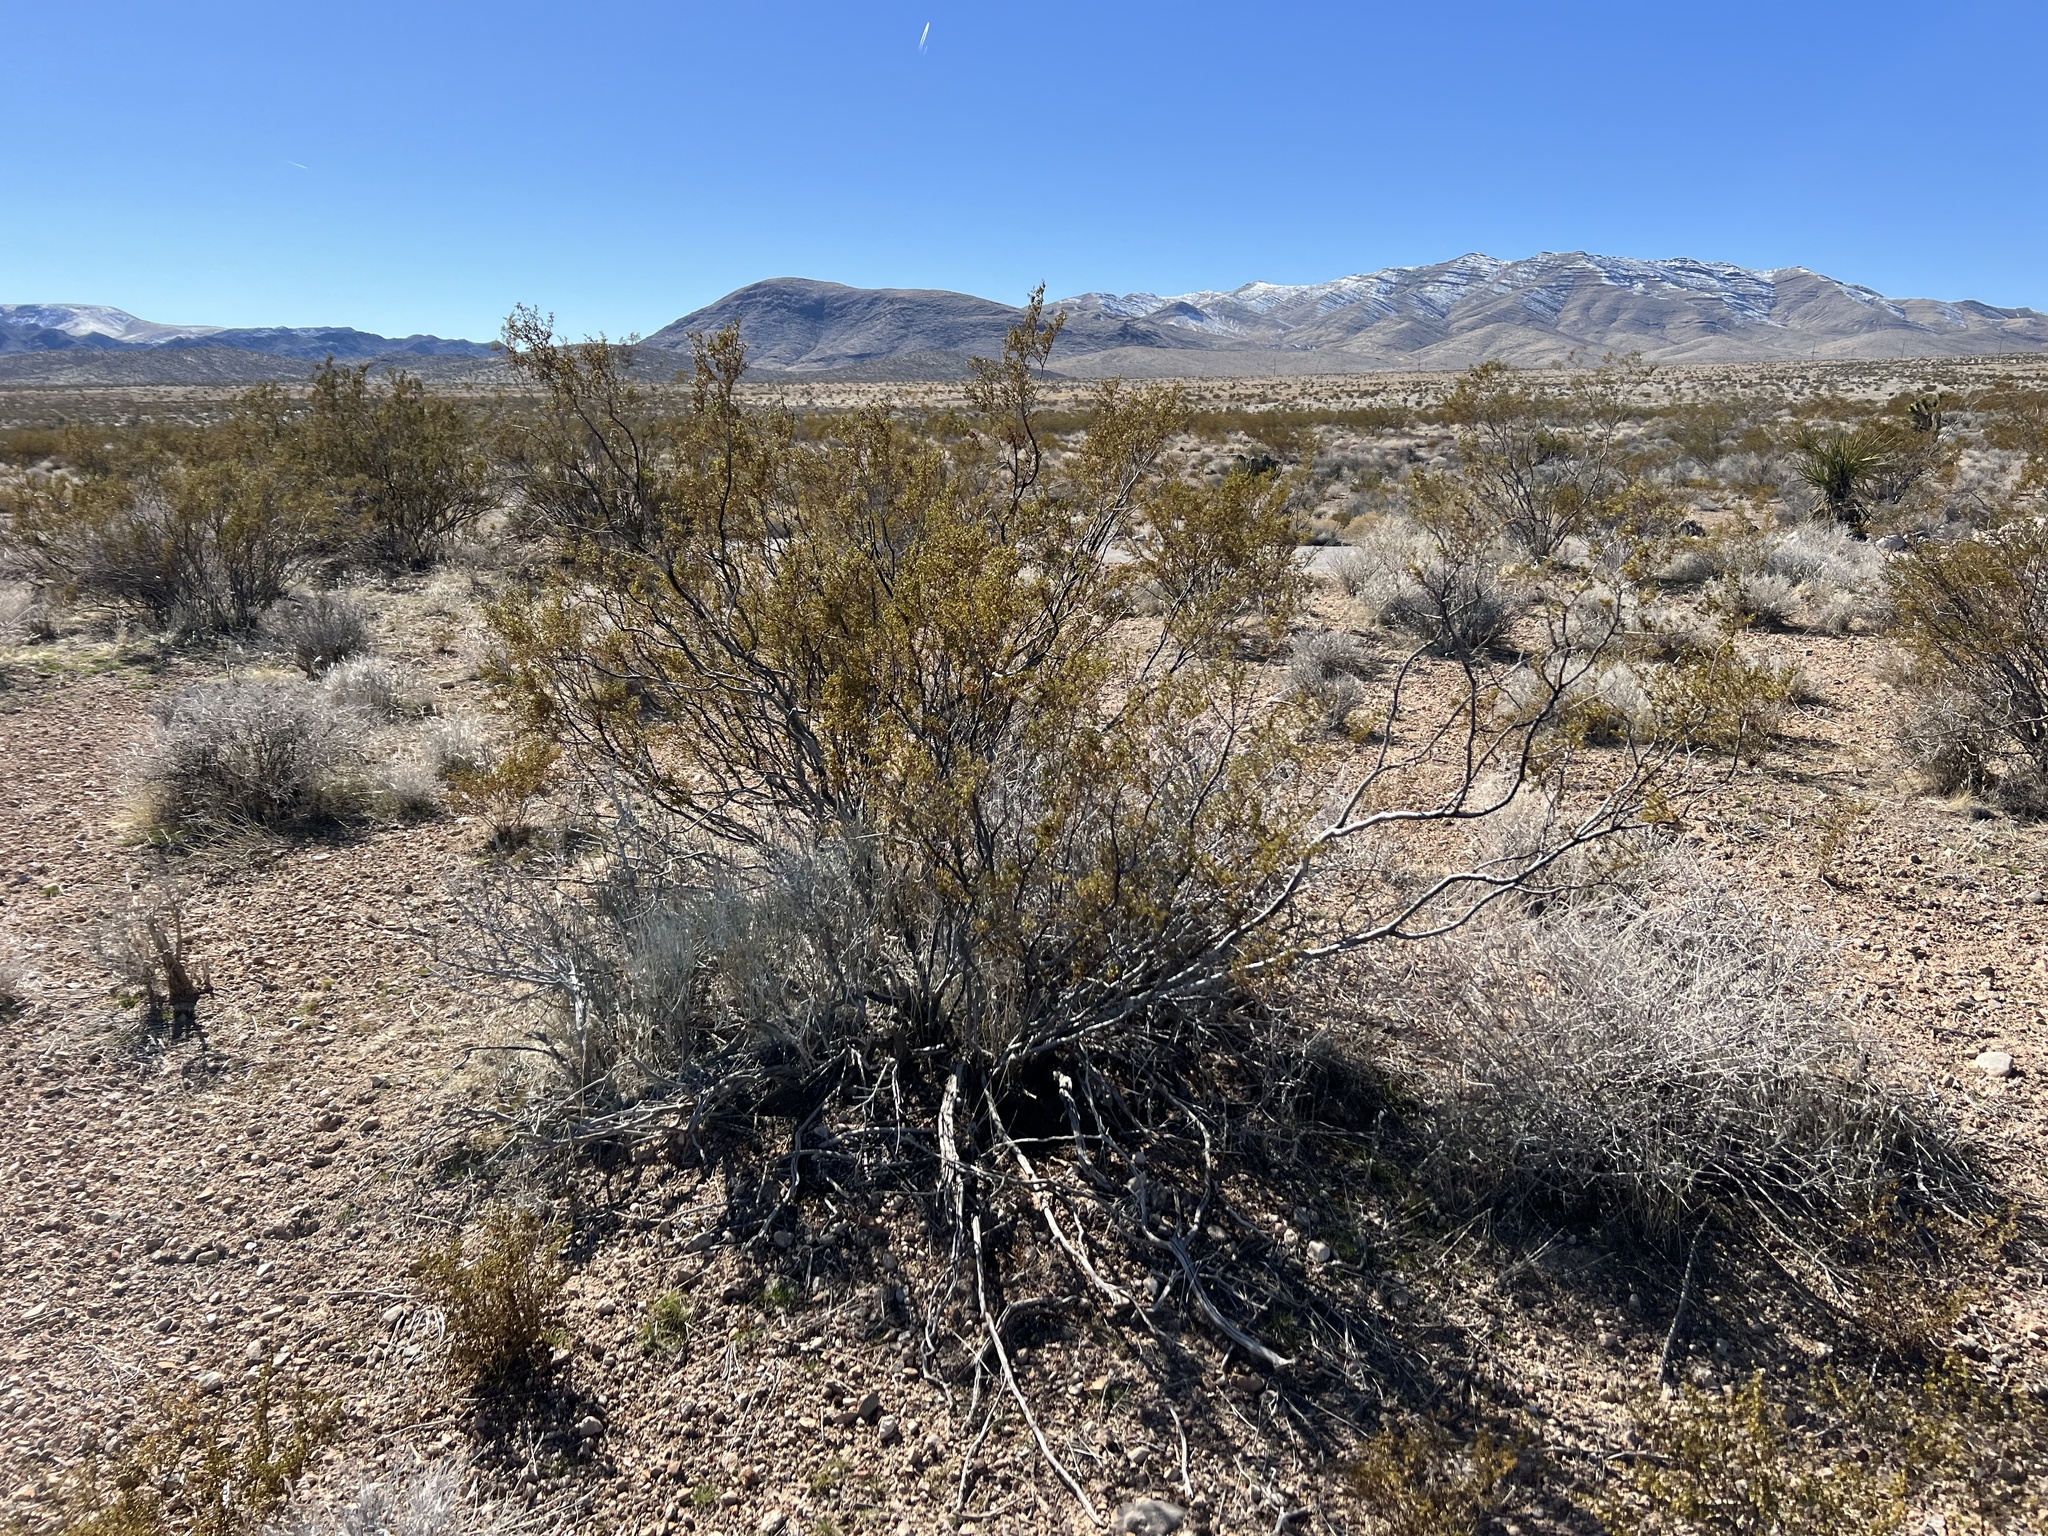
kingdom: Plantae
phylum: Tracheophyta
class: Magnoliopsida
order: Zygophyllales
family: Zygophyllaceae
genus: Larrea
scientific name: Larrea tridentata
